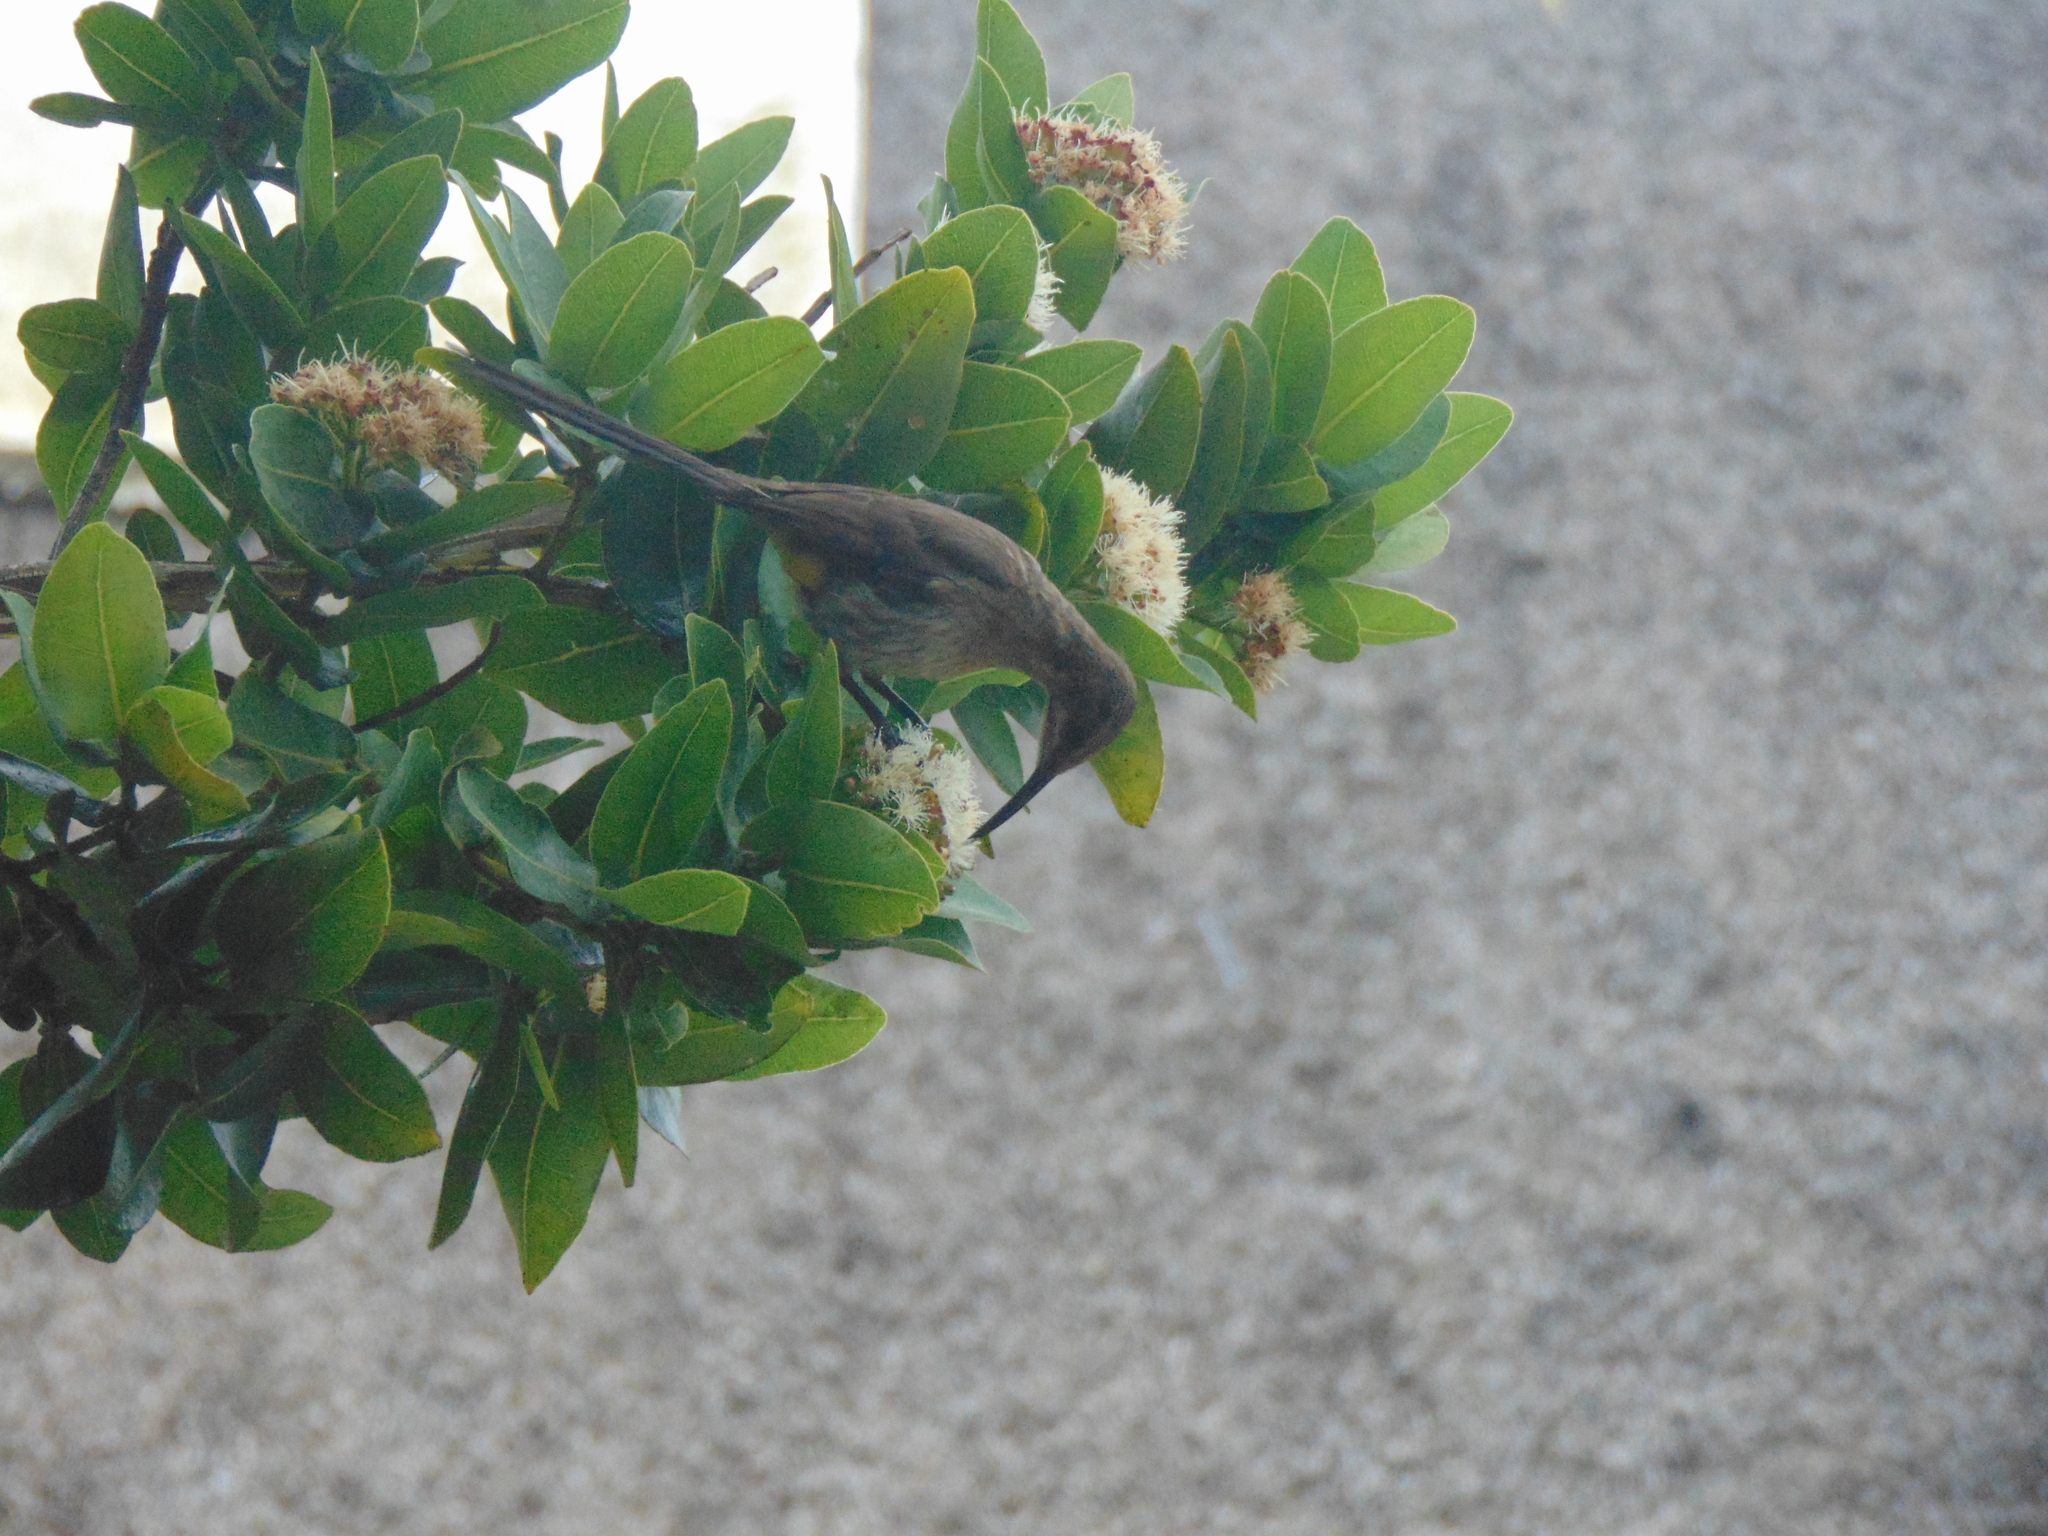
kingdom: Animalia
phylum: Chordata
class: Aves
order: Passeriformes
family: Promeropidae
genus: Promerops
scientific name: Promerops cafer
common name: Cape sugarbird
